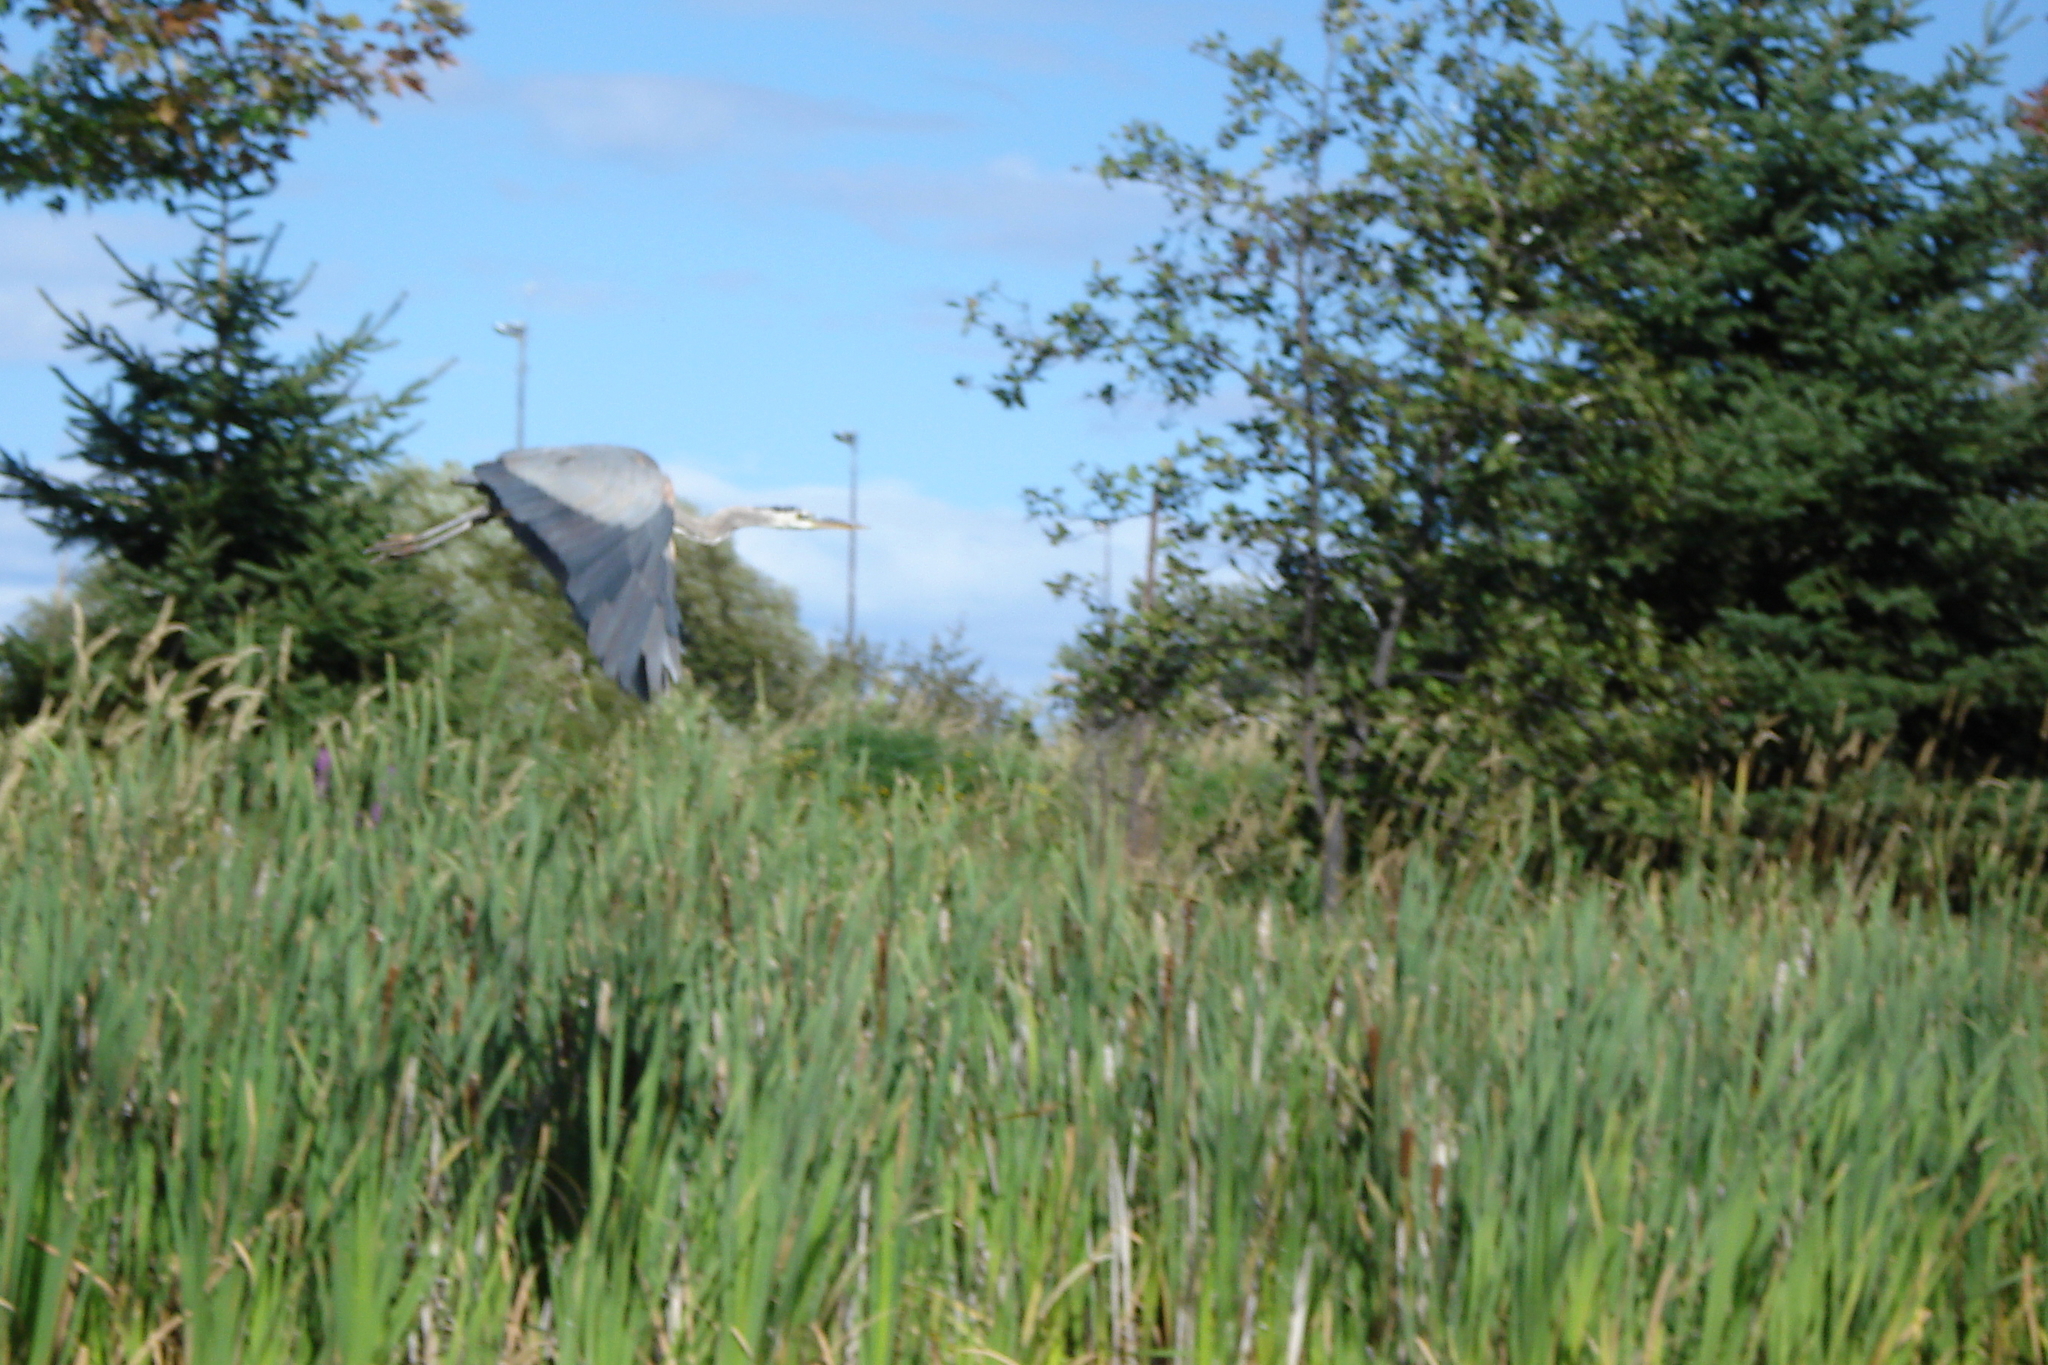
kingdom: Animalia
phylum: Chordata
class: Aves
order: Pelecaniformes
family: Ardeidae
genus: Ardea
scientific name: Ardea herodias
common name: Great blue heron
